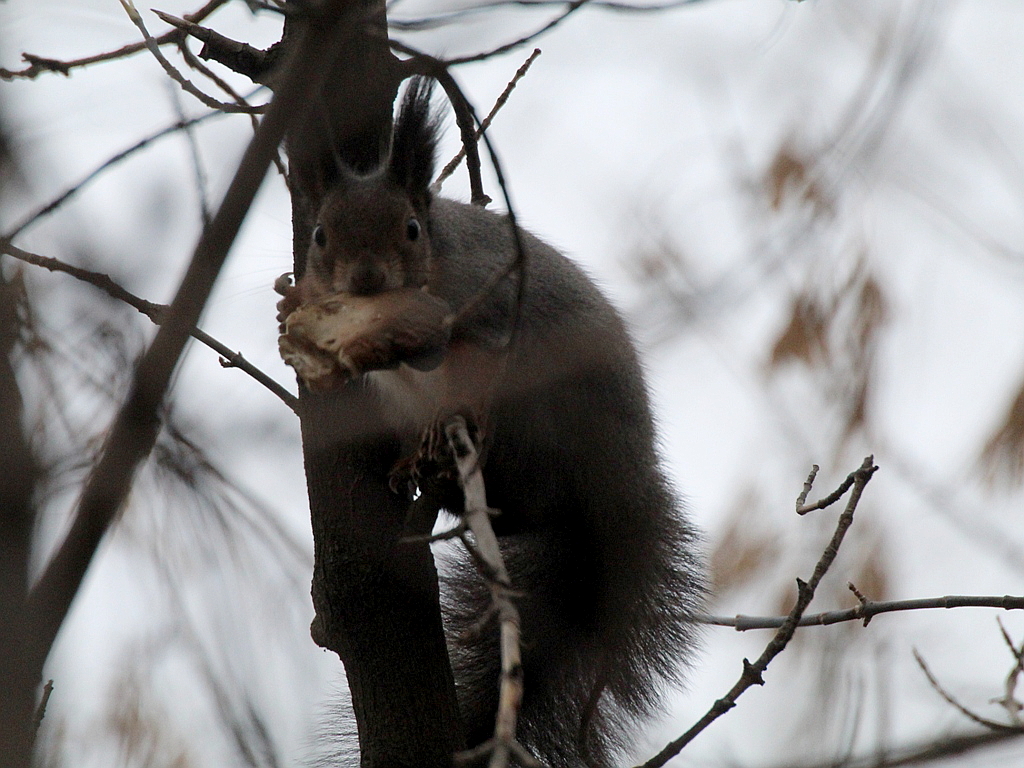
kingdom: Animalia
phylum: Chordata
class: Mammalia
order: Rodentia
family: Sciuridae
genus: Sciurus
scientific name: Sciurus vulgaris
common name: Eurasian red squirrel
